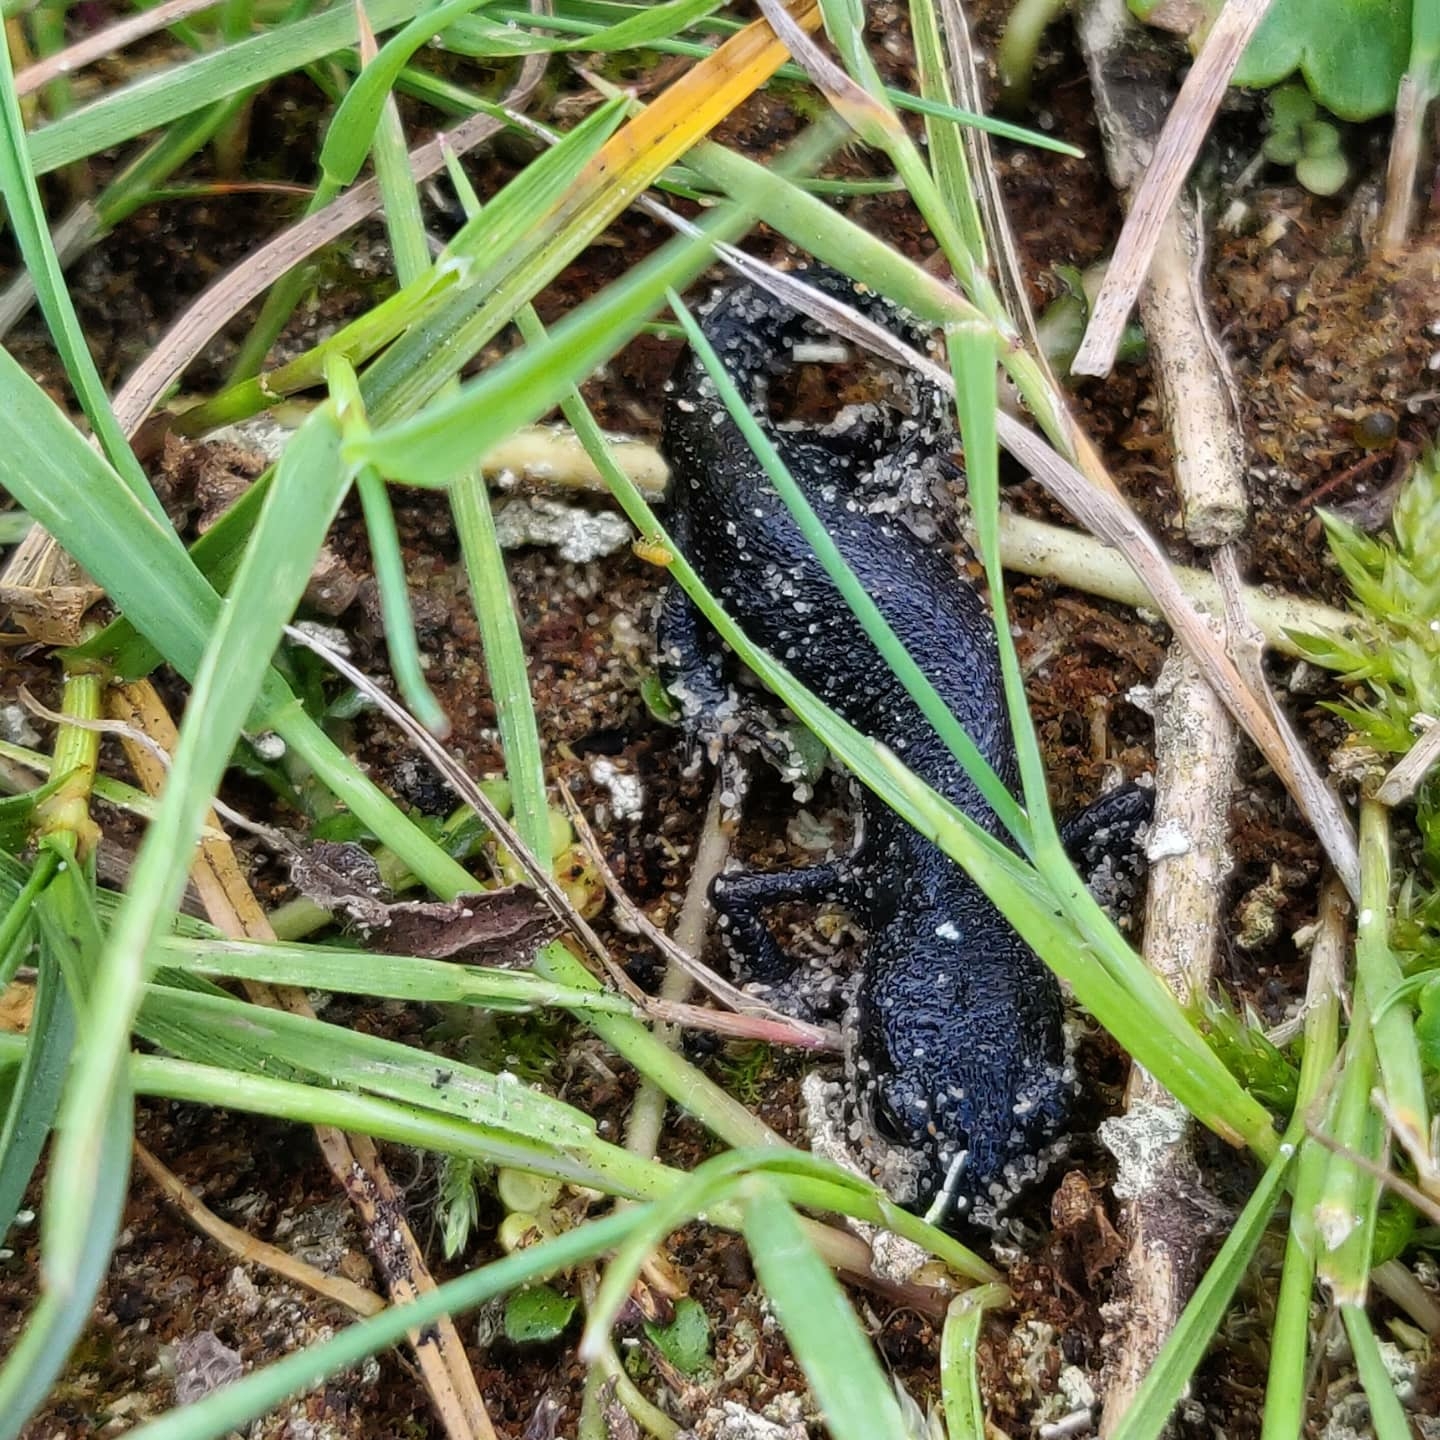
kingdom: Animalia
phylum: Chordata
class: Amphibia
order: Caudata
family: Salamandridae
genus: Triturus
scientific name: Triturus cristatus
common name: Crested newt
